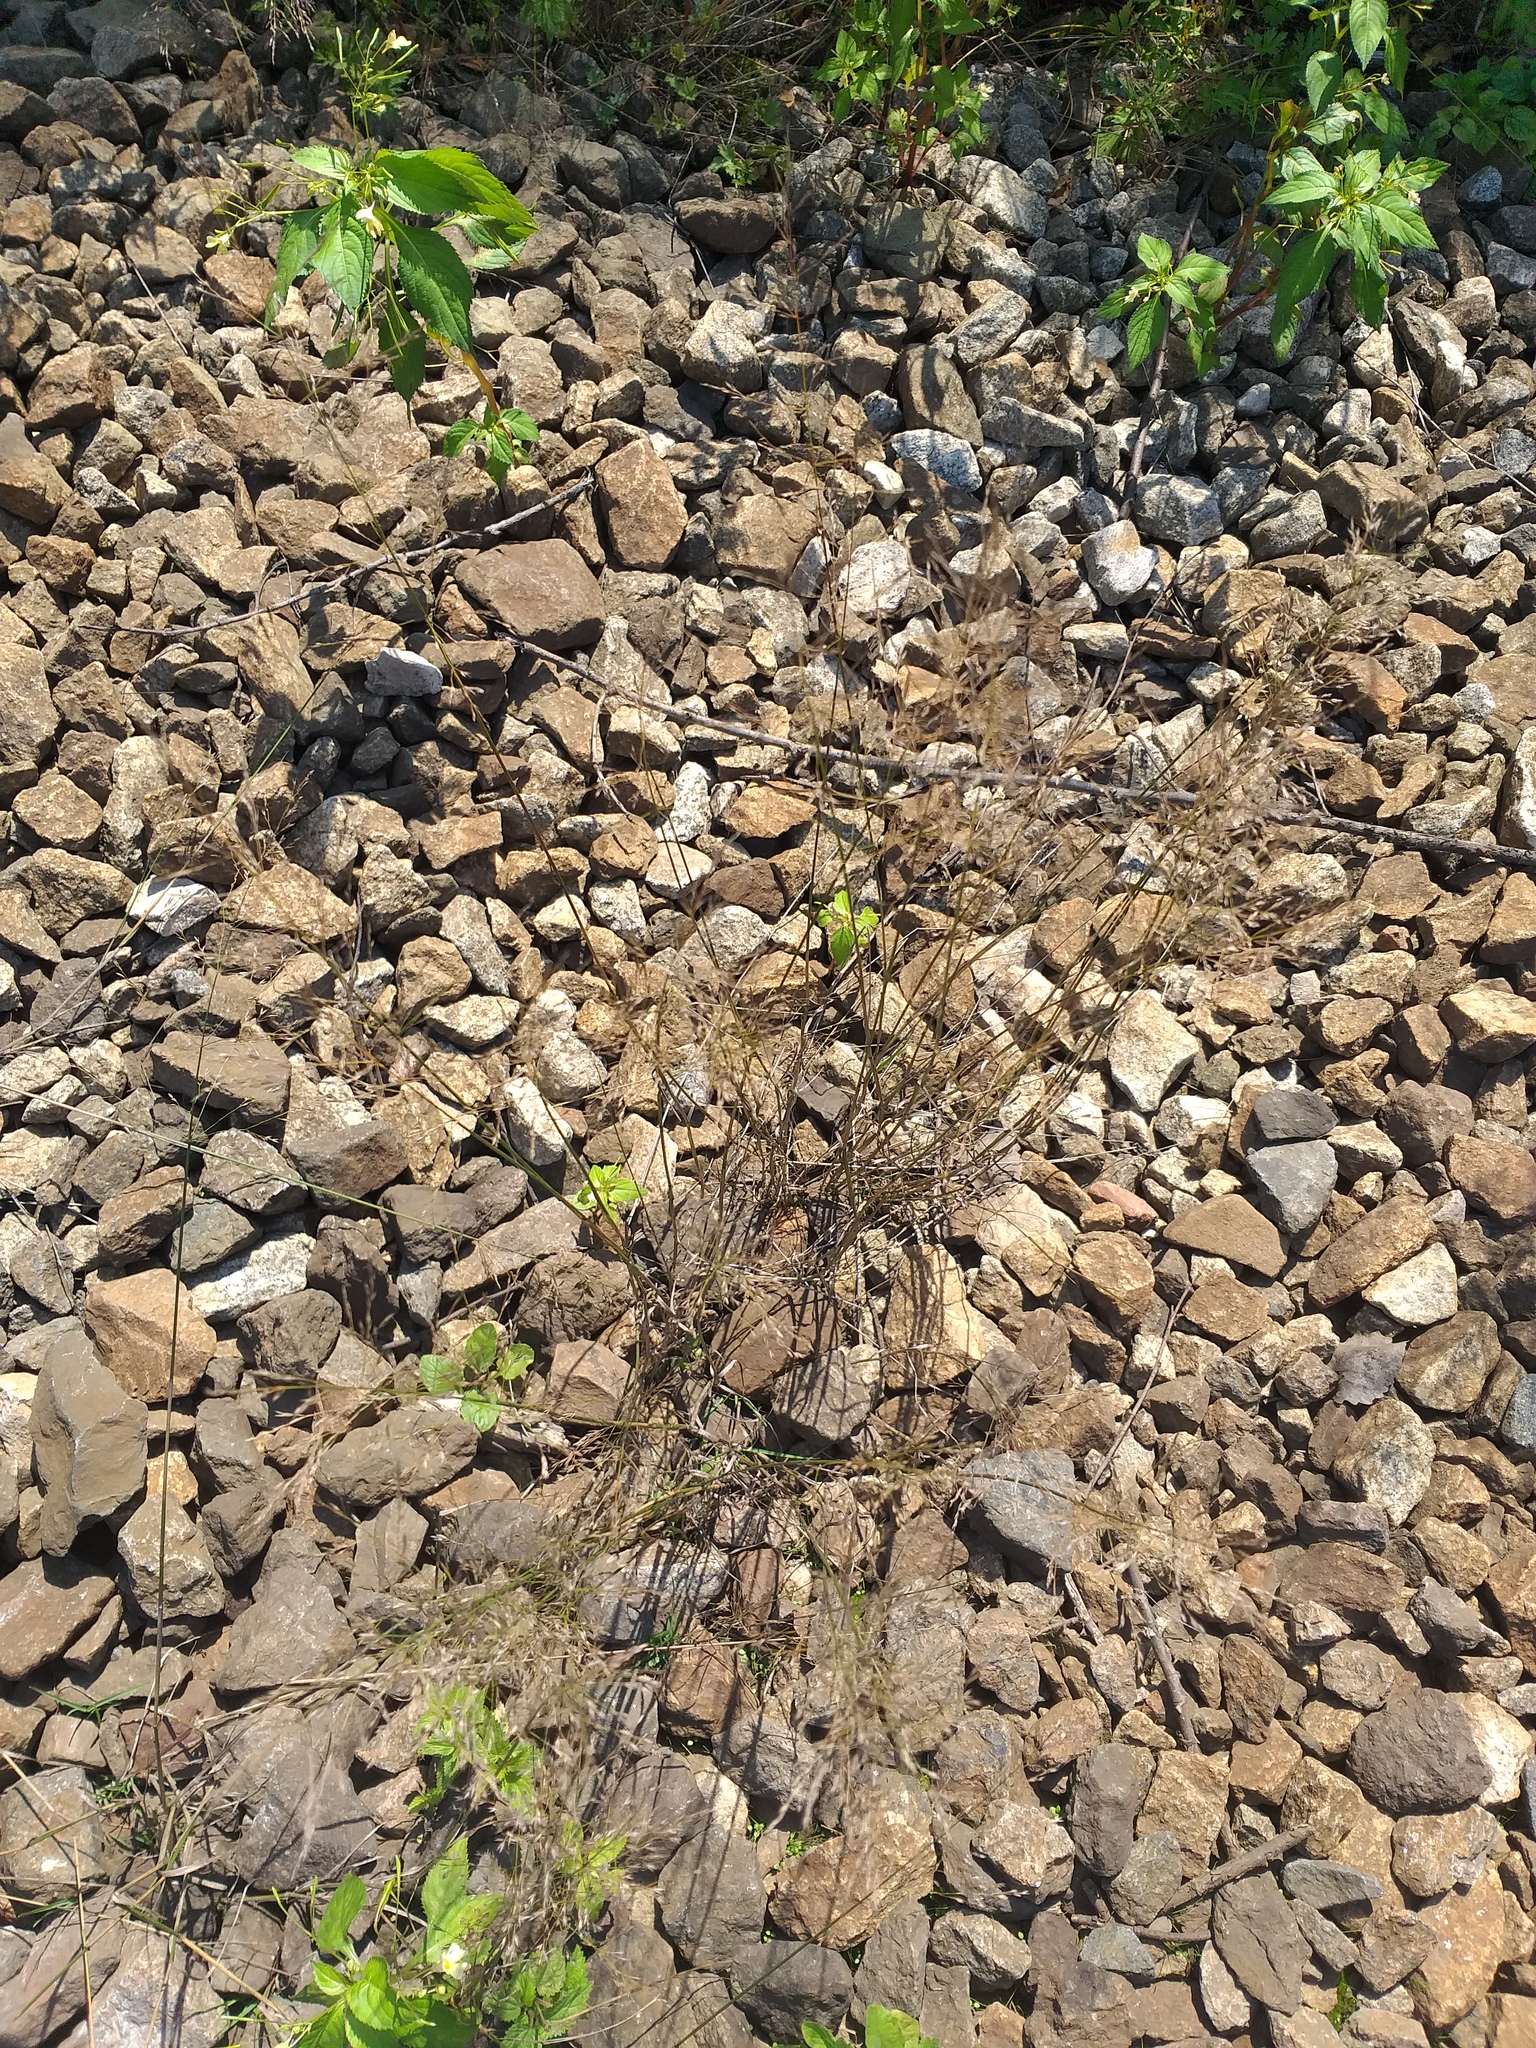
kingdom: Plantae
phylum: Tracheophyta
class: Liliopsida
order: Poales
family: Poaceae
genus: Poa
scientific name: Poa palustris
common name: Swamp meadow-grass
